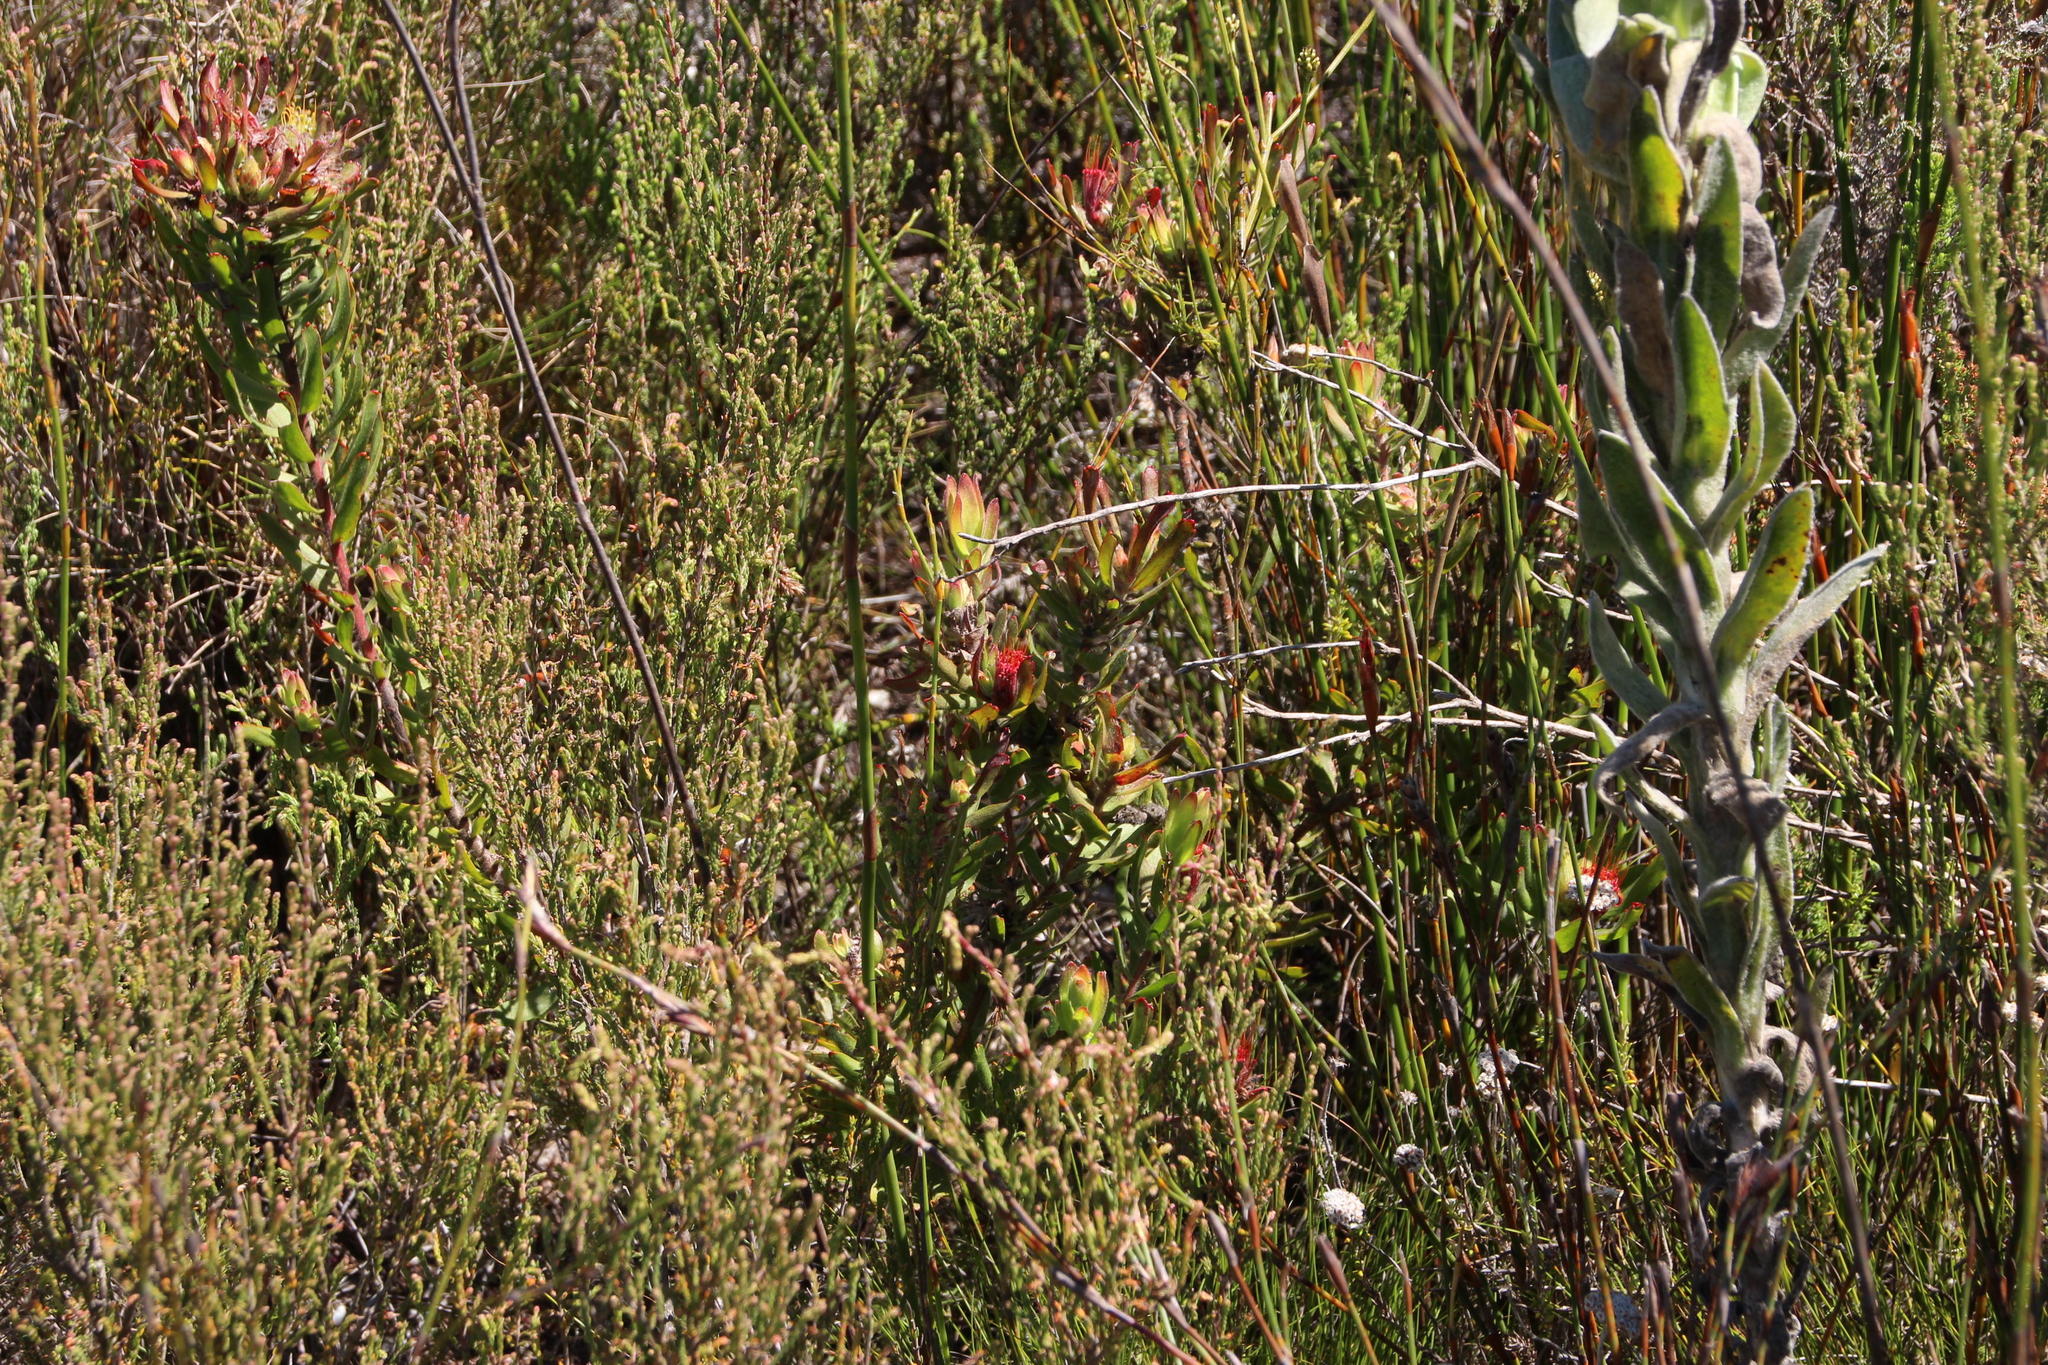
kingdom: Plantae
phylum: Tracheophyta
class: Magnoliopsida
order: Proteales
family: Proteaceae
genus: Leucospermum
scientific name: Leucospermum oleifolium
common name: Matches
